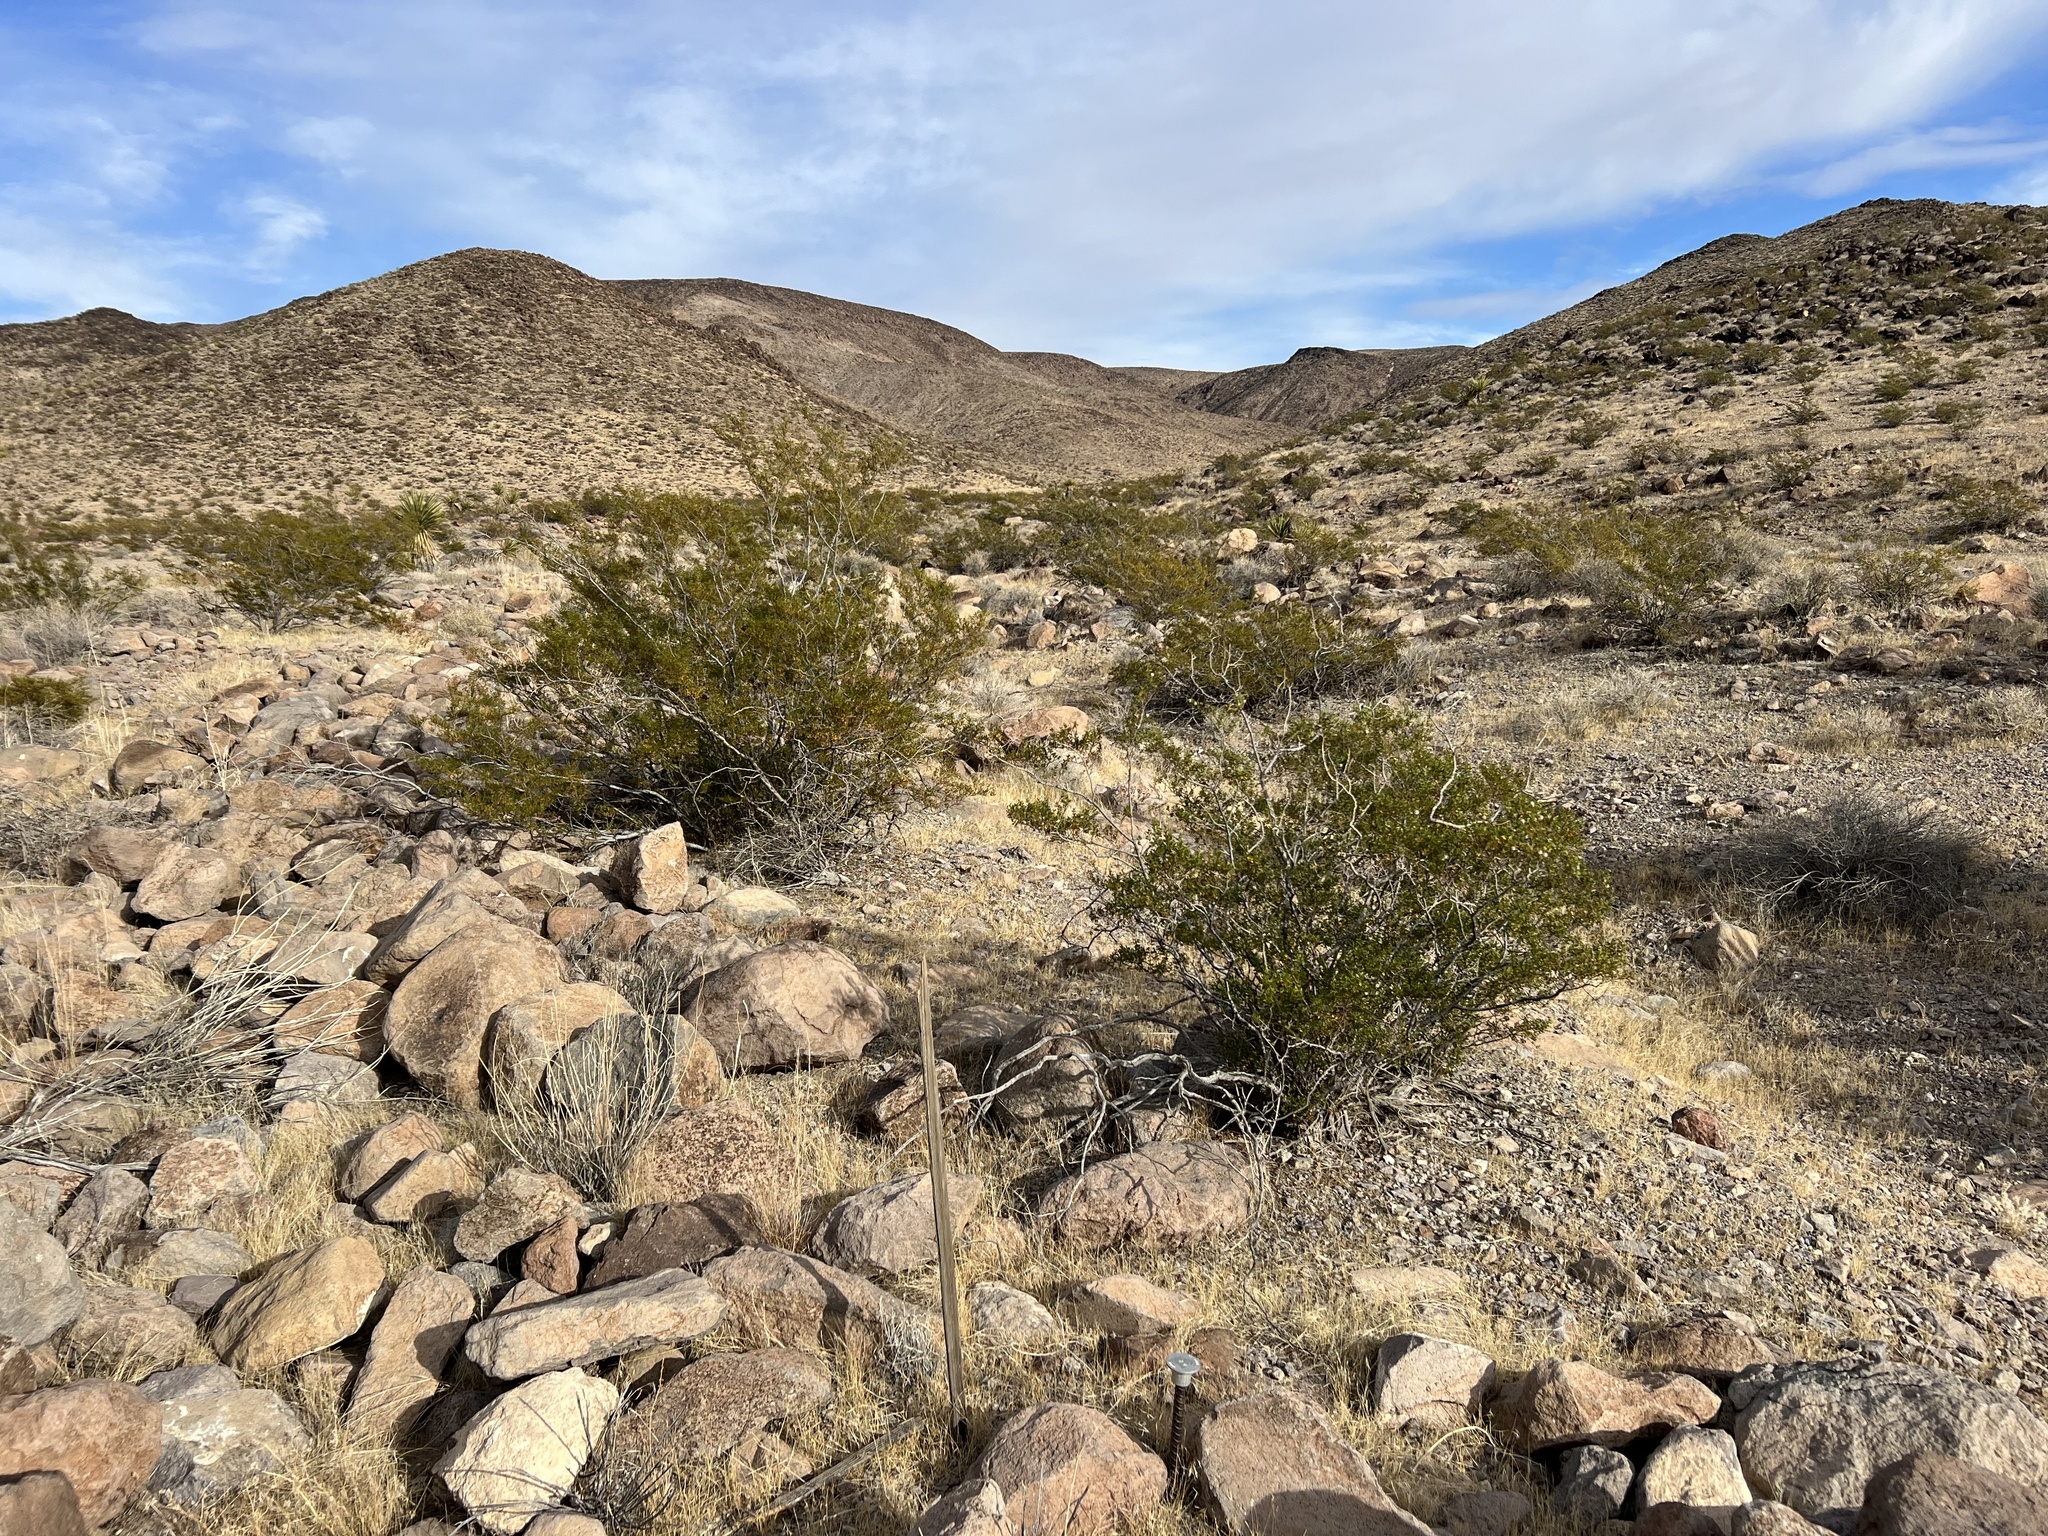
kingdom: Plantae
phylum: Tracheophyta
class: Magnoliopsida
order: Zygophyllales
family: Zygophyllaceae
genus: Larrea
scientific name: Larrea tridentata
